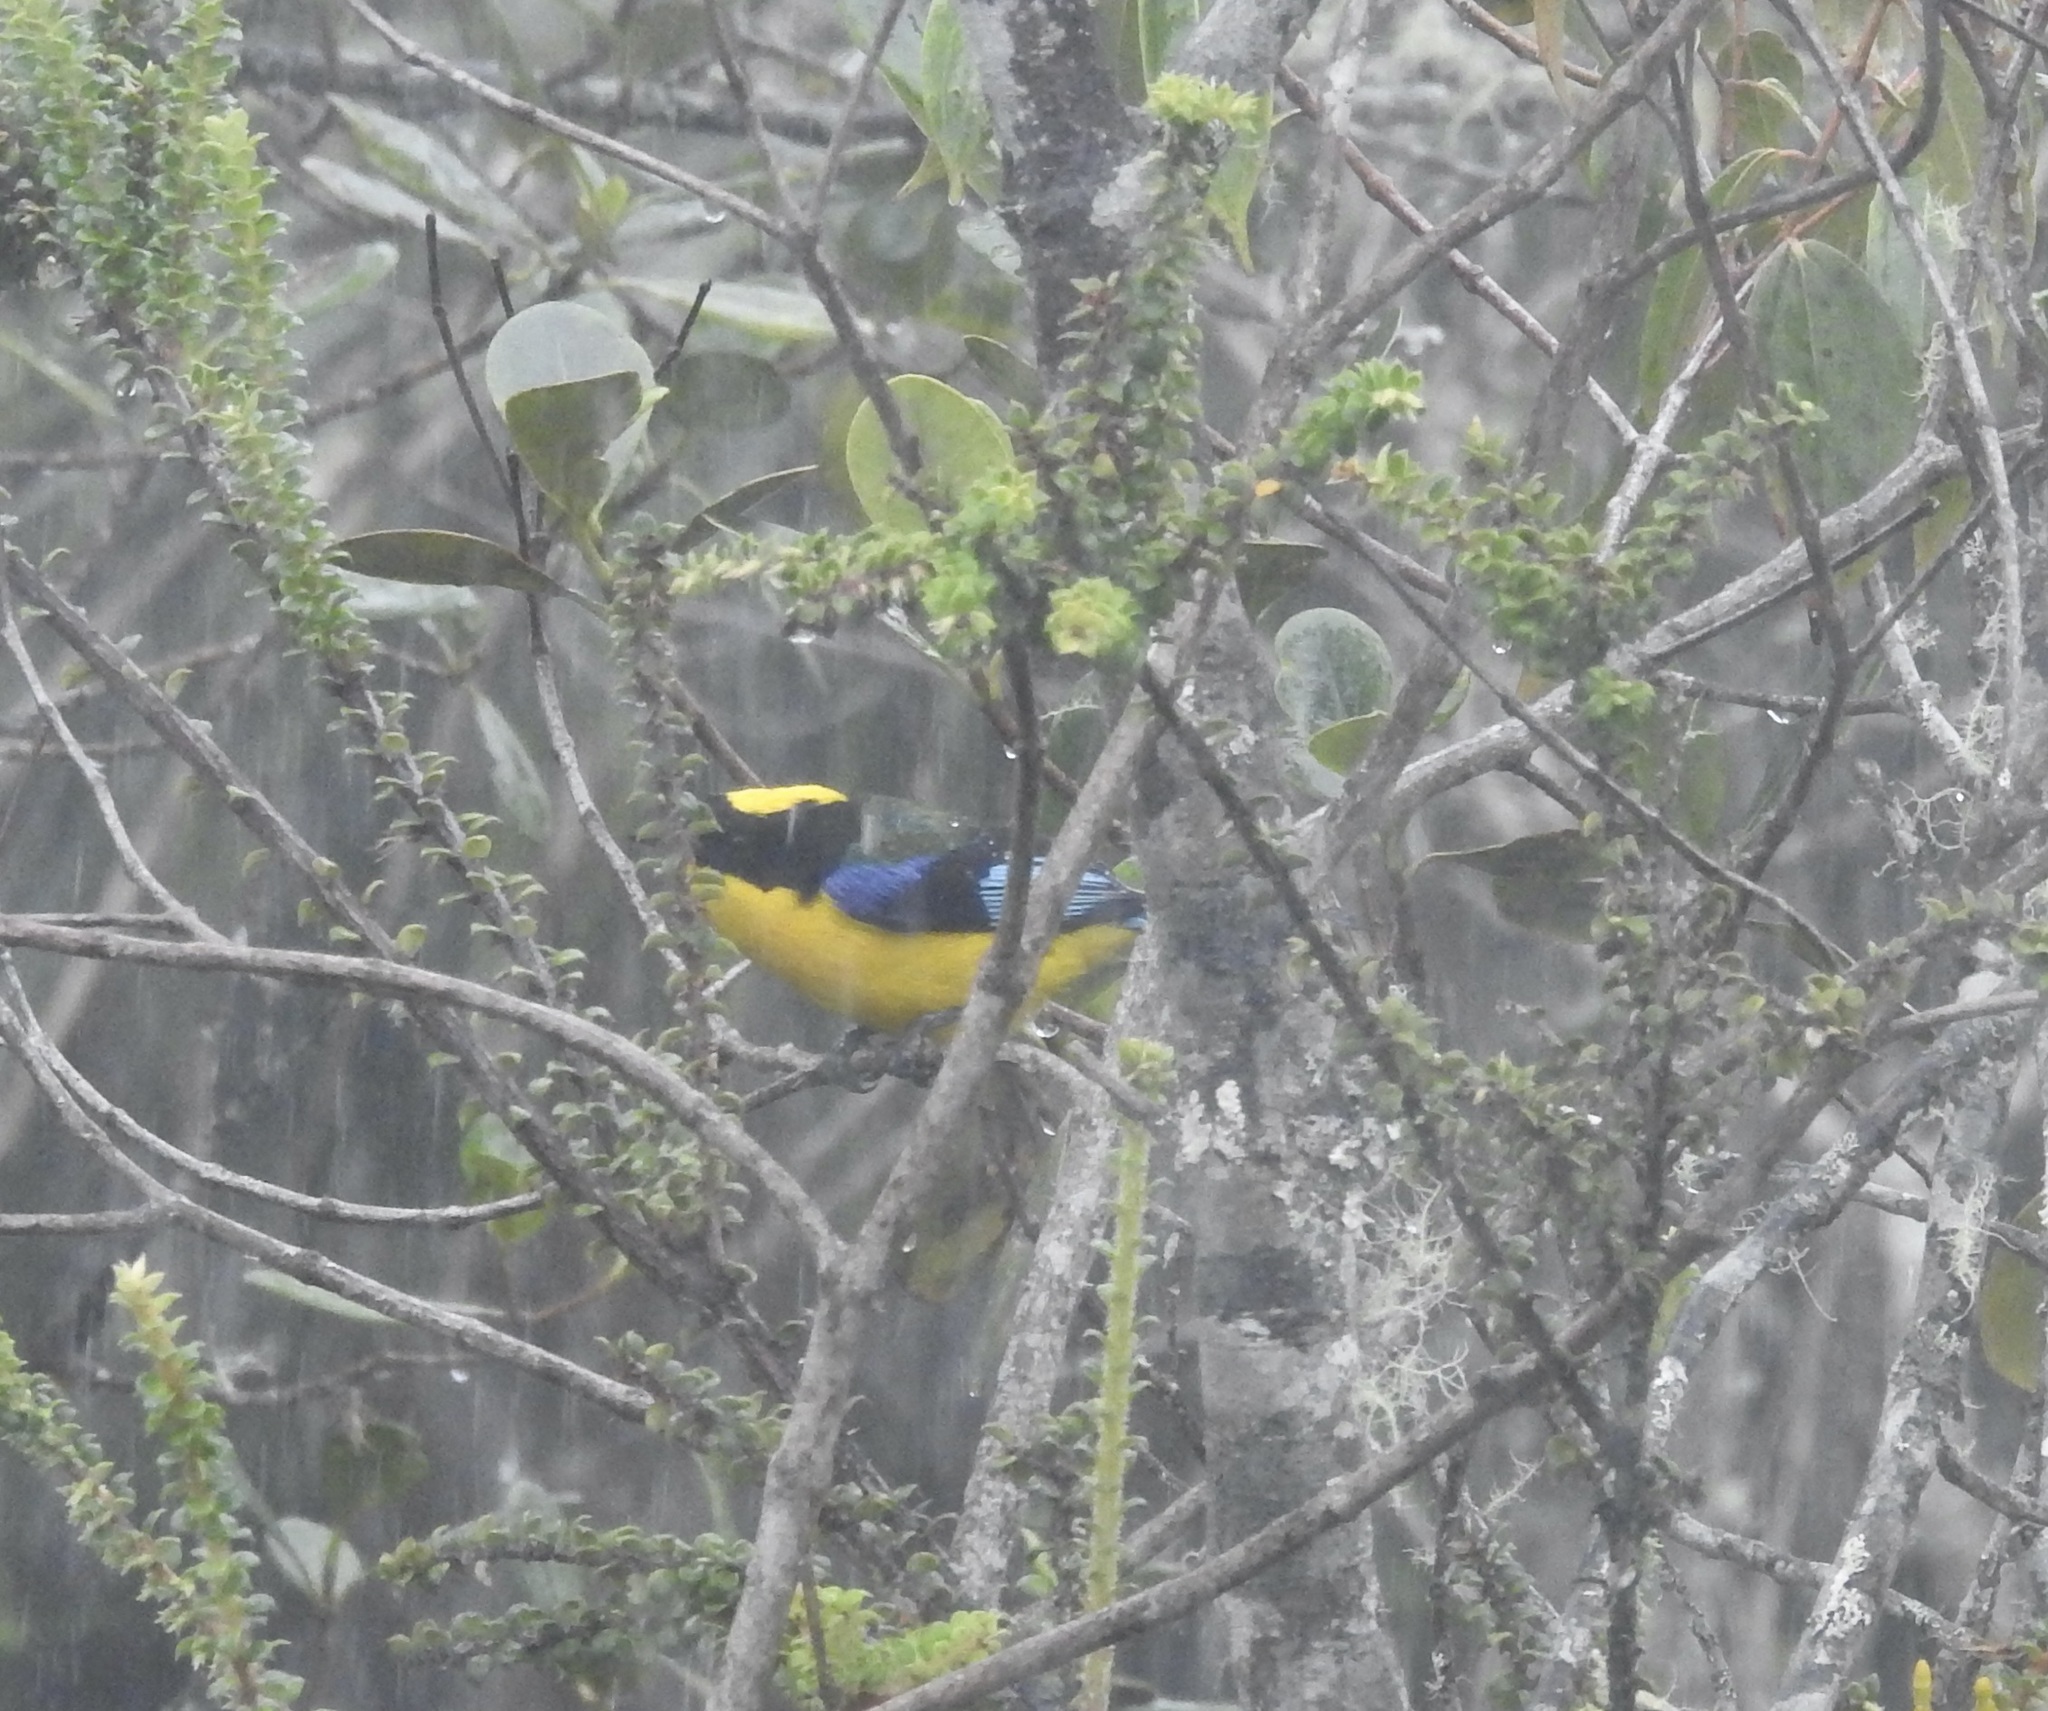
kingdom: Animalia
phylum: Chordata
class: Aves
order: Passeriformes
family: Thraupidae
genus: Anisognathus
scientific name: Anisognathus somptuosus
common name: Blue-winged mountain-tanager
